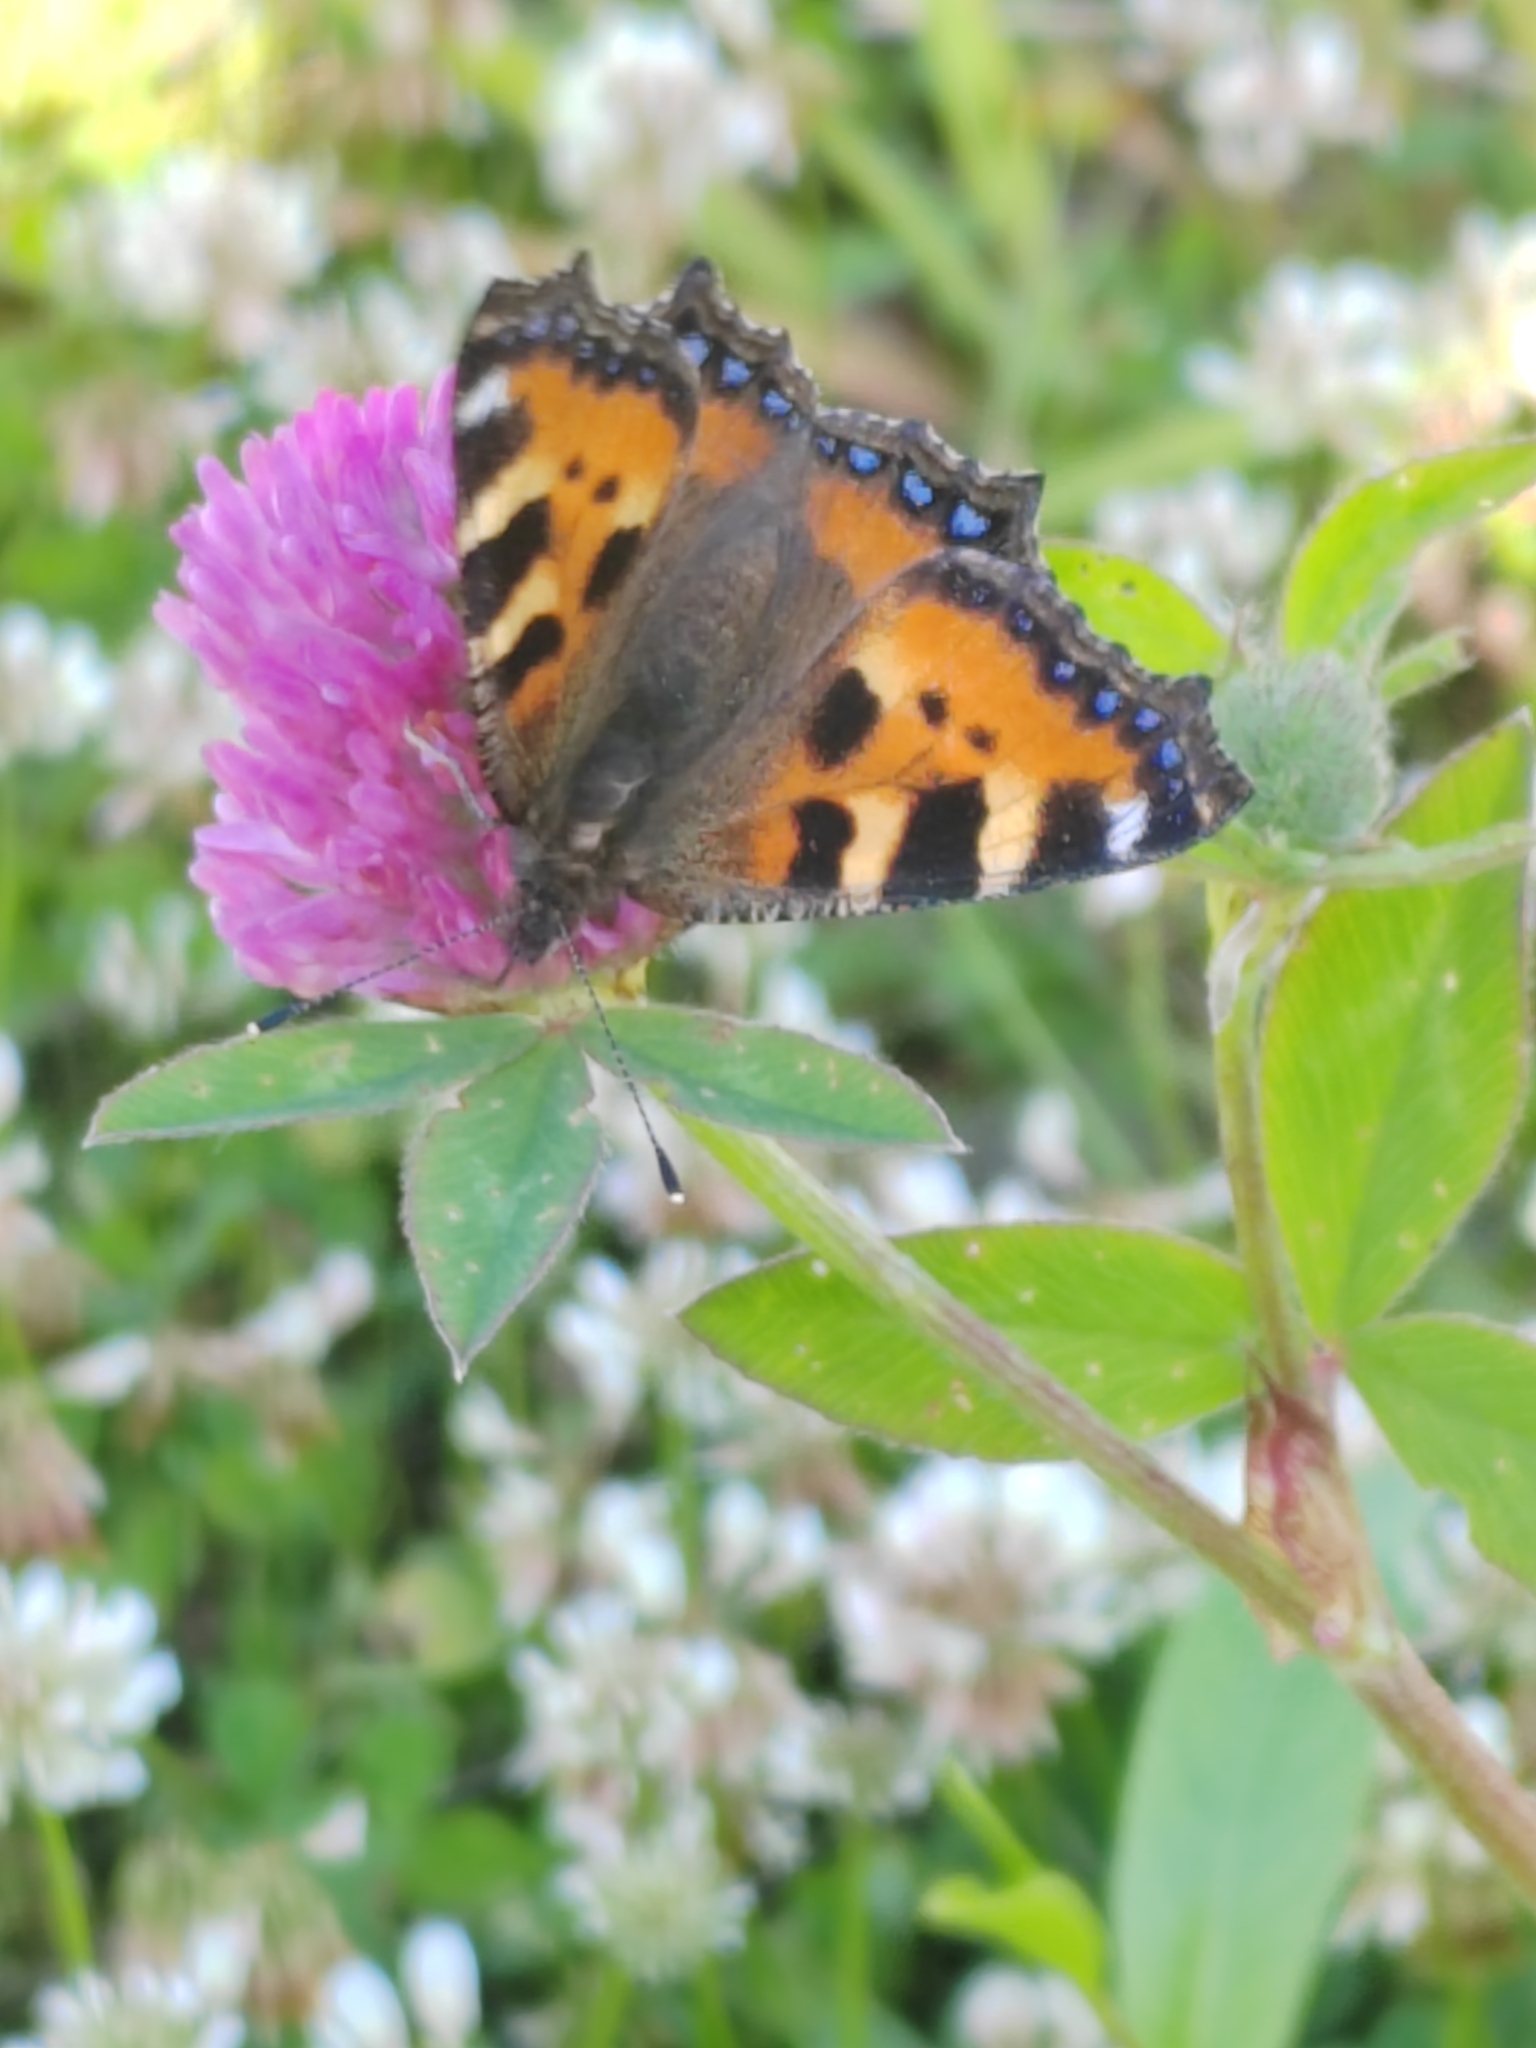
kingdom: Animalia
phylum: Arthropoda
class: Insecta
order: Lepidoptera
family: Nymphalidae
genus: Aglais
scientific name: Aglais urticae
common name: Small tortoiseshell
